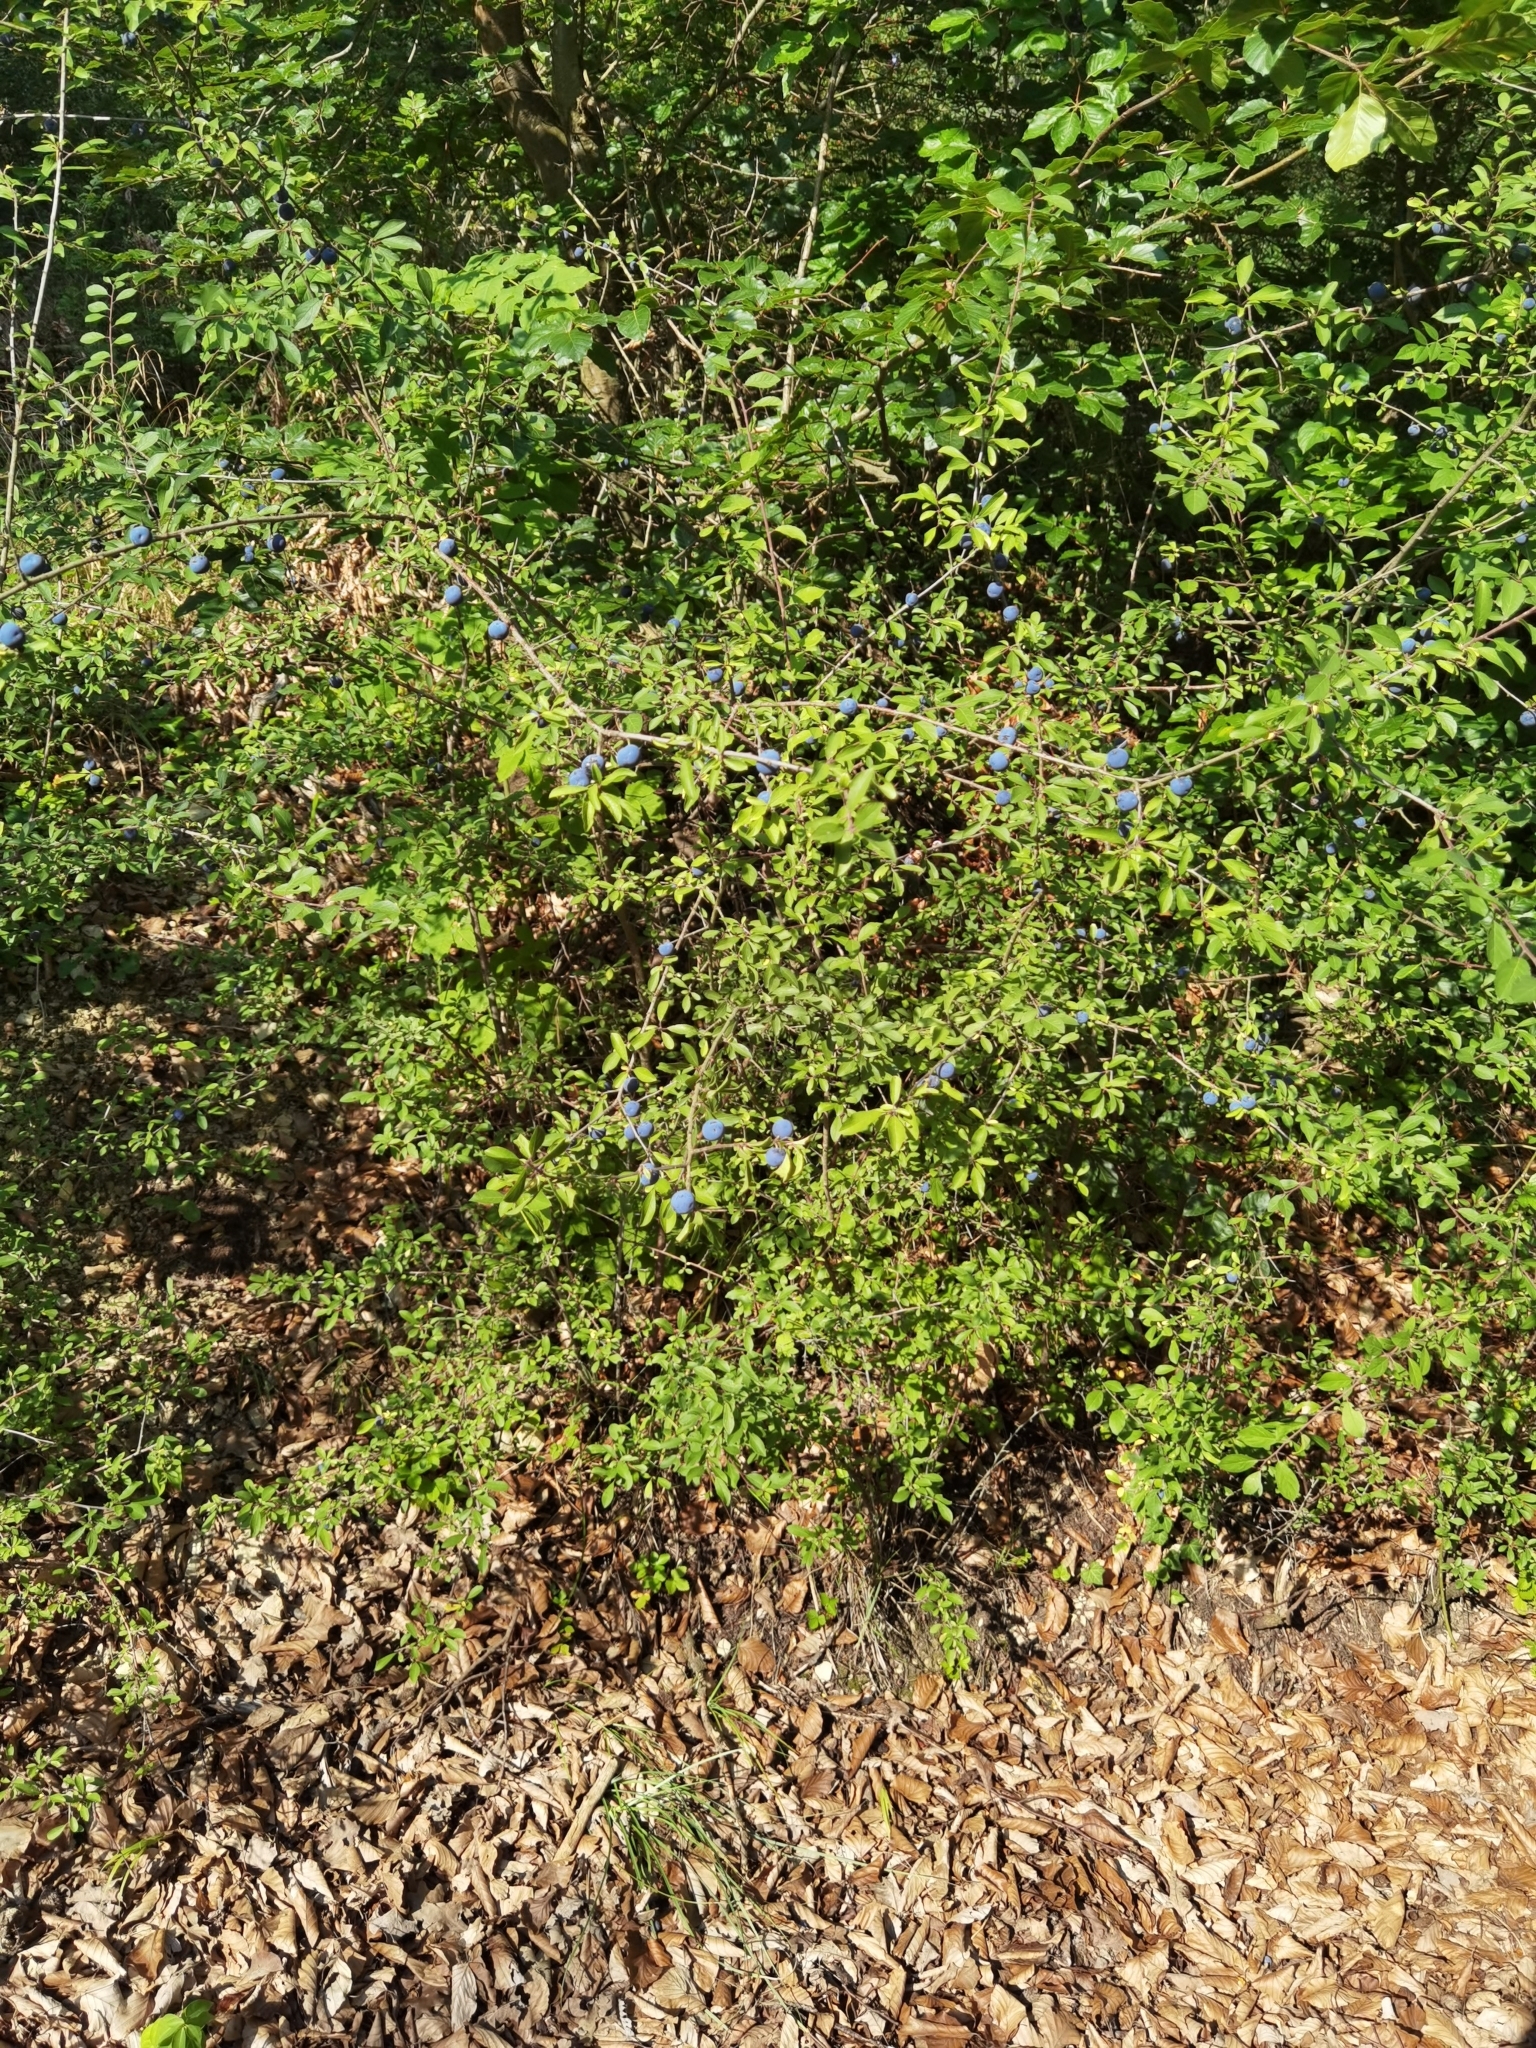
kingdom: Plantae
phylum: Tracheophyta
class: Magnoliopsida
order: Rosales
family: Rosaceae
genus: Prunus
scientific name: Prunus spinosa
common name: Blackthorn
